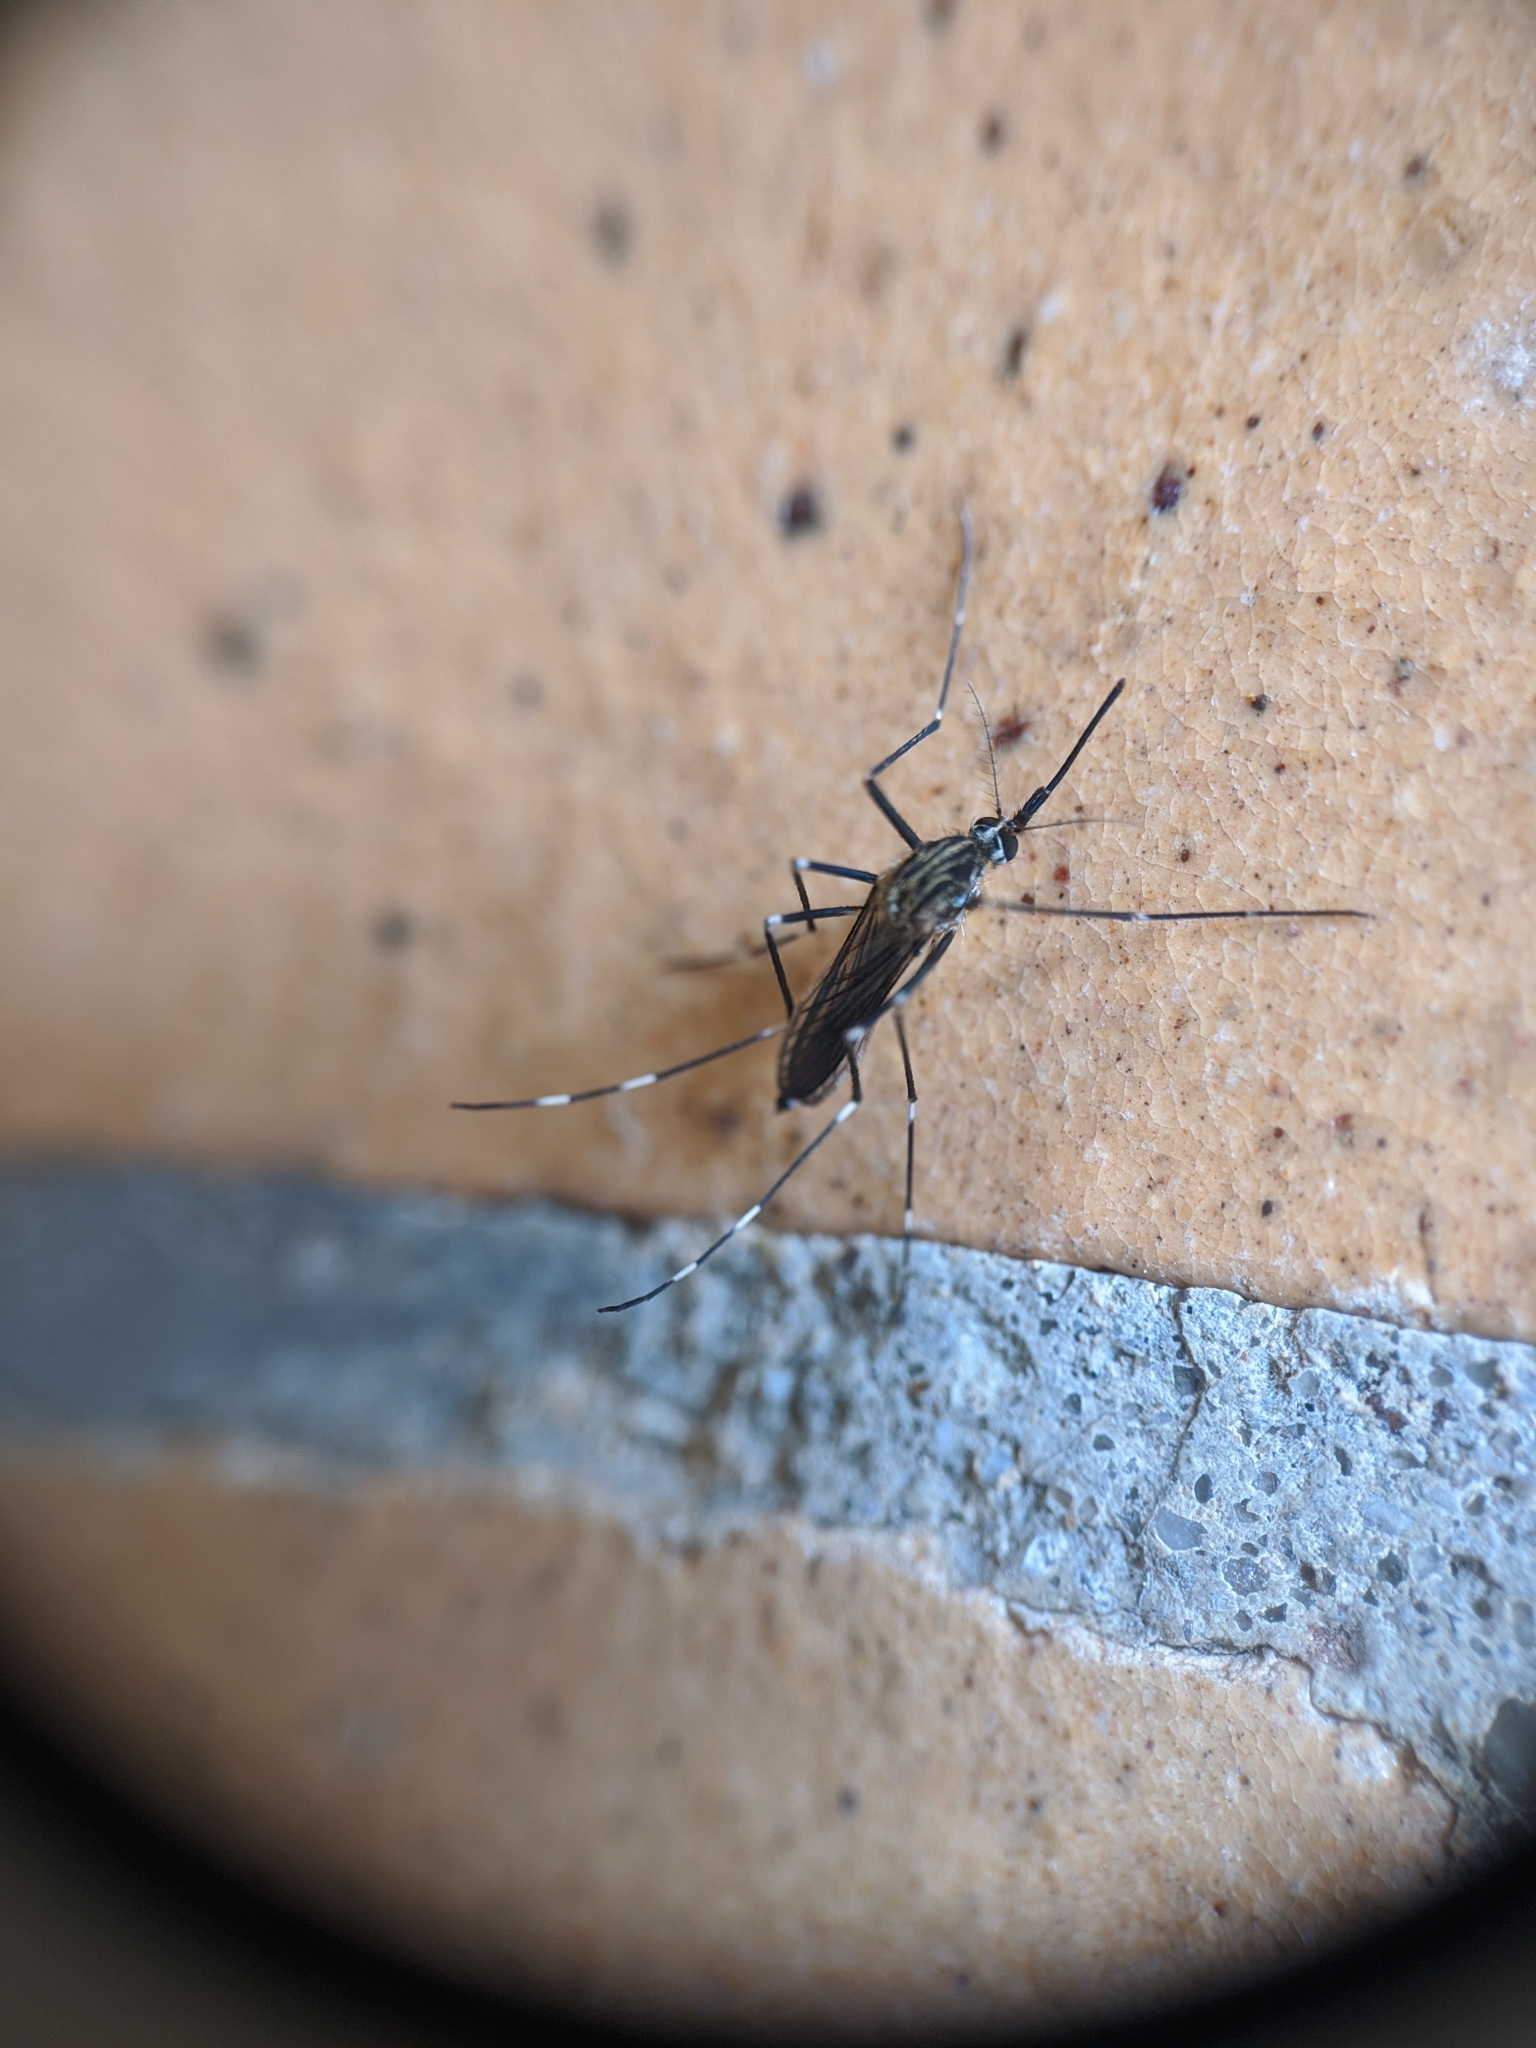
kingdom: Animalia
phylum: Arthropoda
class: Insecta
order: Diptera
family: Culicidae
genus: Aedes
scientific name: Aedes japonicus
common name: Asian bush mosquito
